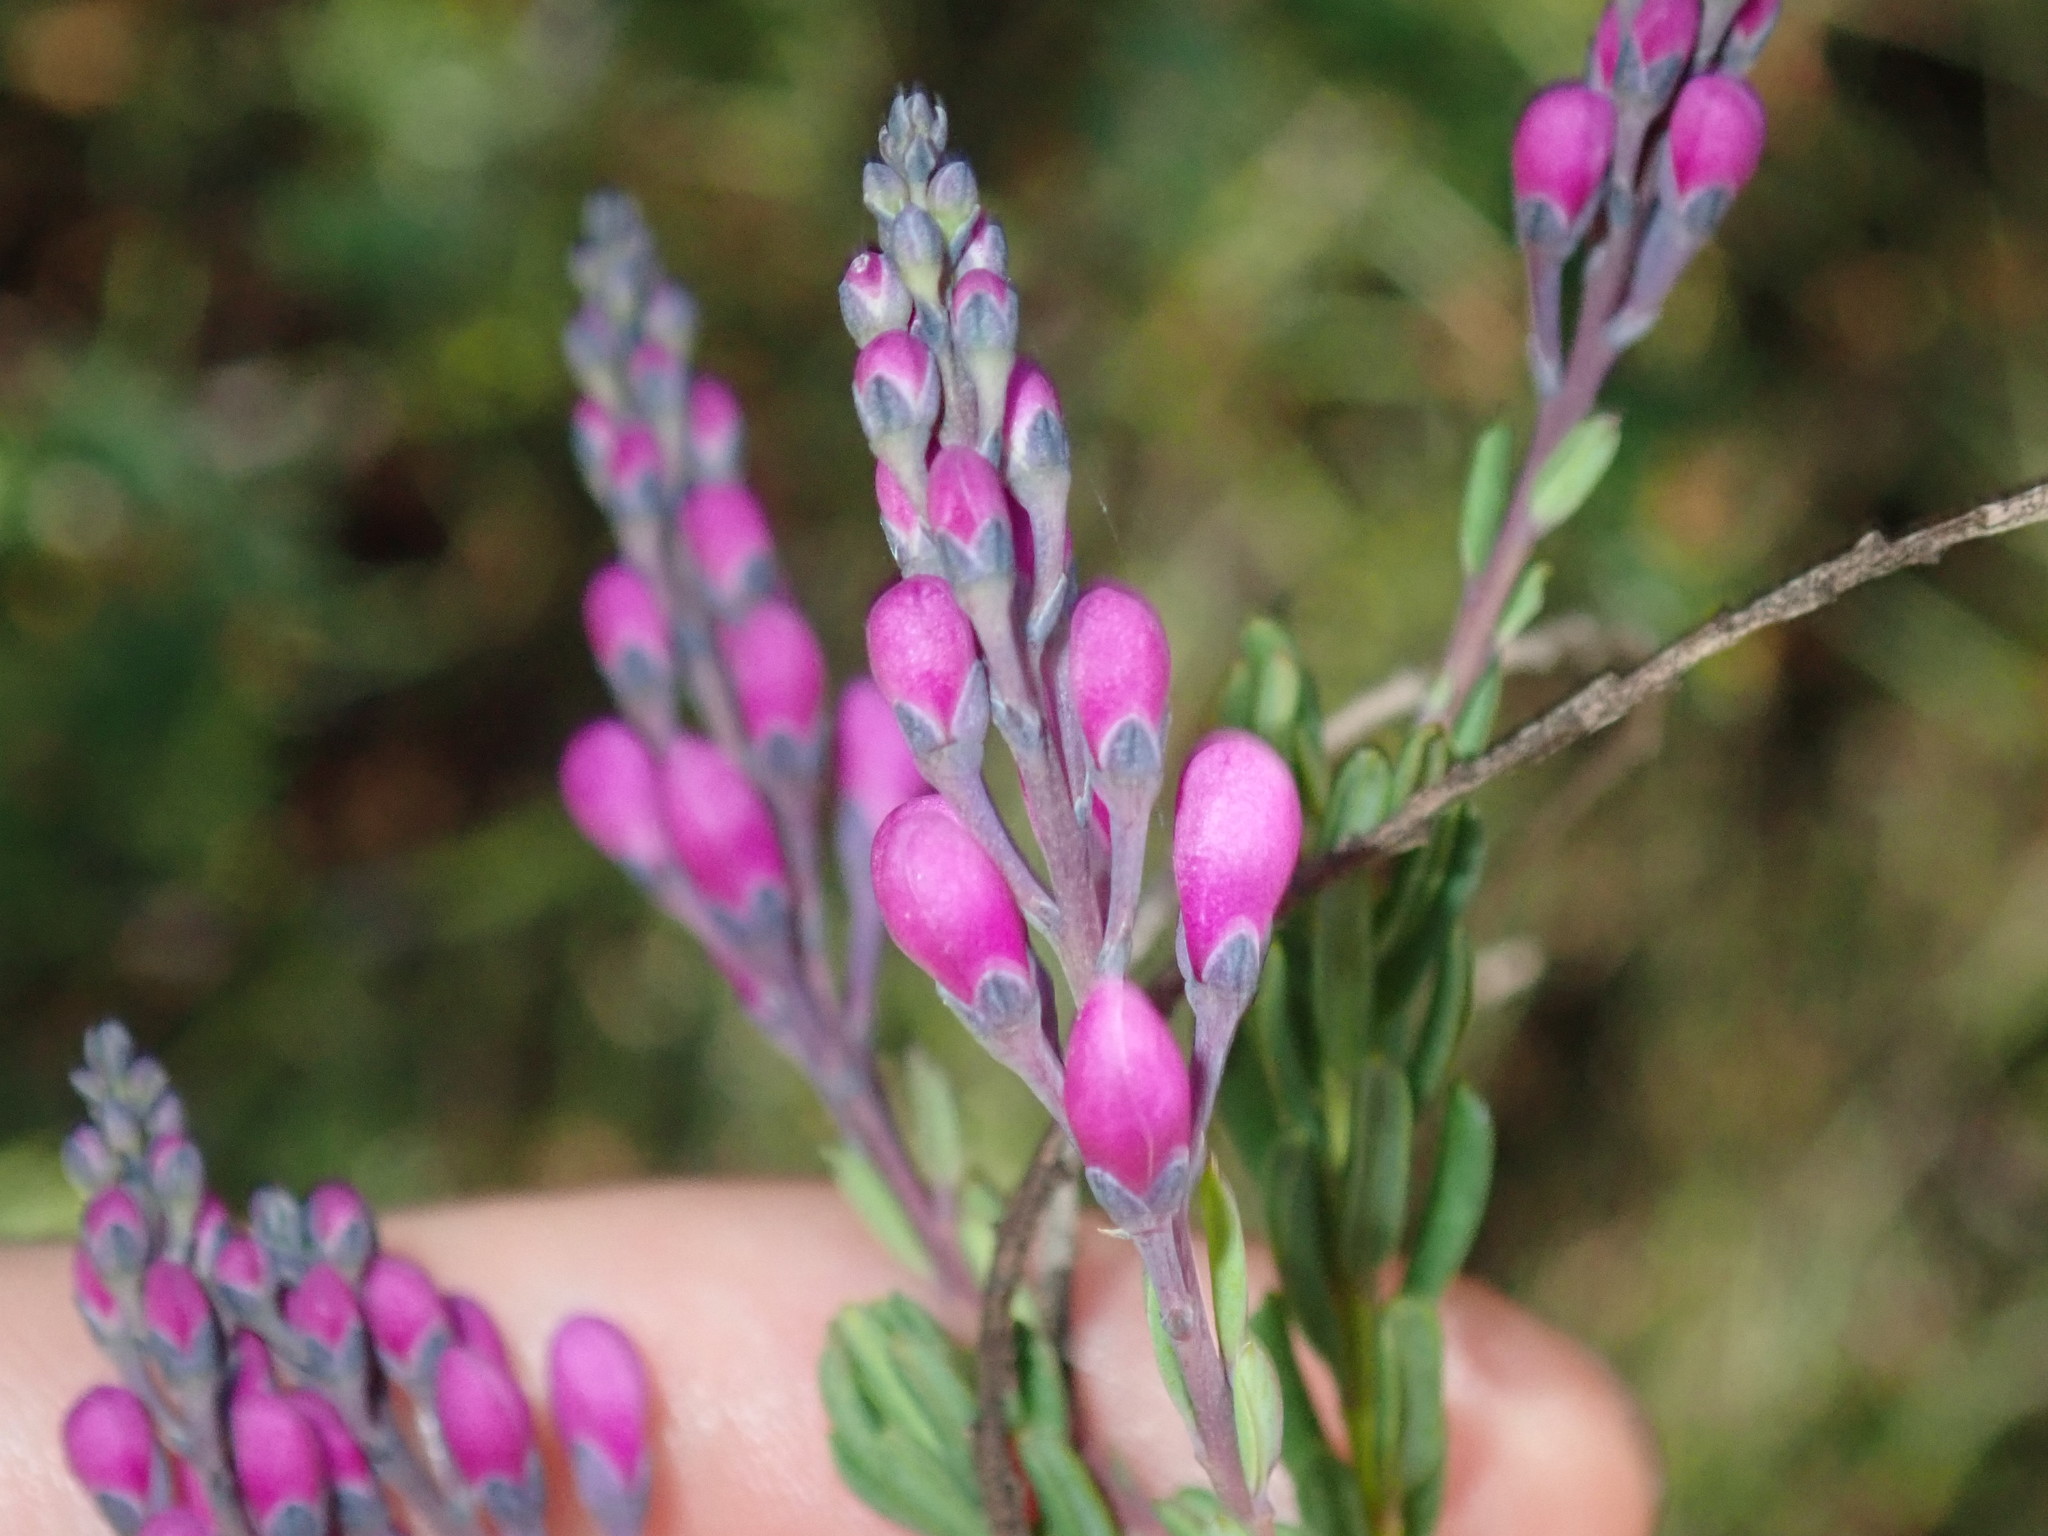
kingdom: Plantae
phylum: Tracheophyta
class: Magnoliopsida
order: Fabales
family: Polygalaceae
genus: Comesperma
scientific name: Comesperma ericinum
